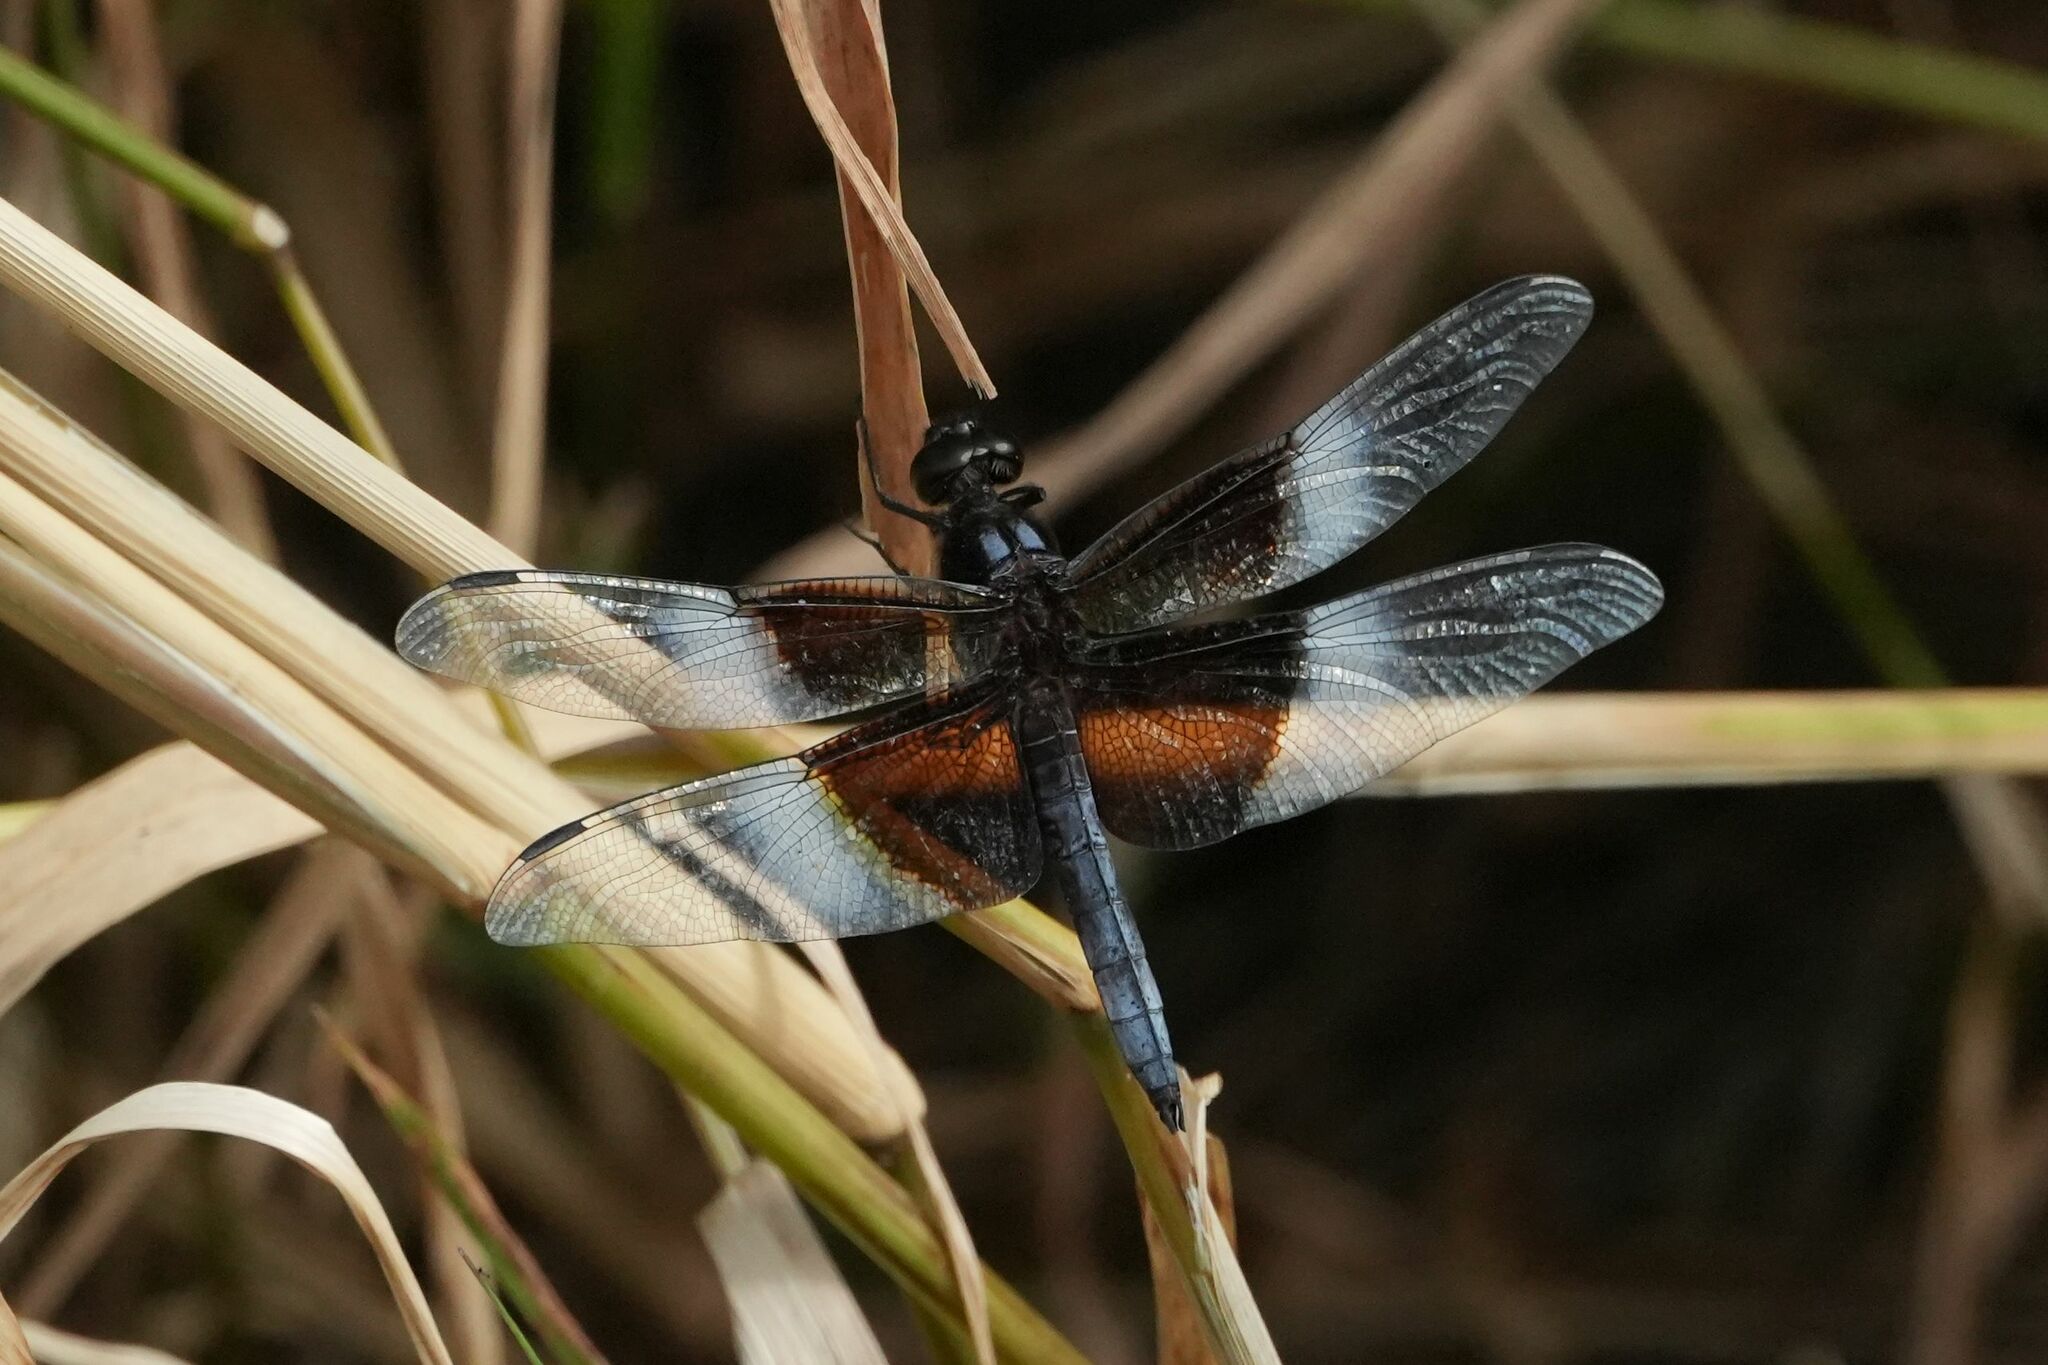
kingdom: Animalia
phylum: Arthropoda
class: Insecta
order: Odonata
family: Libellulidae
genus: Libellula
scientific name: Libellula luctuosa
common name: Widow skimmer
